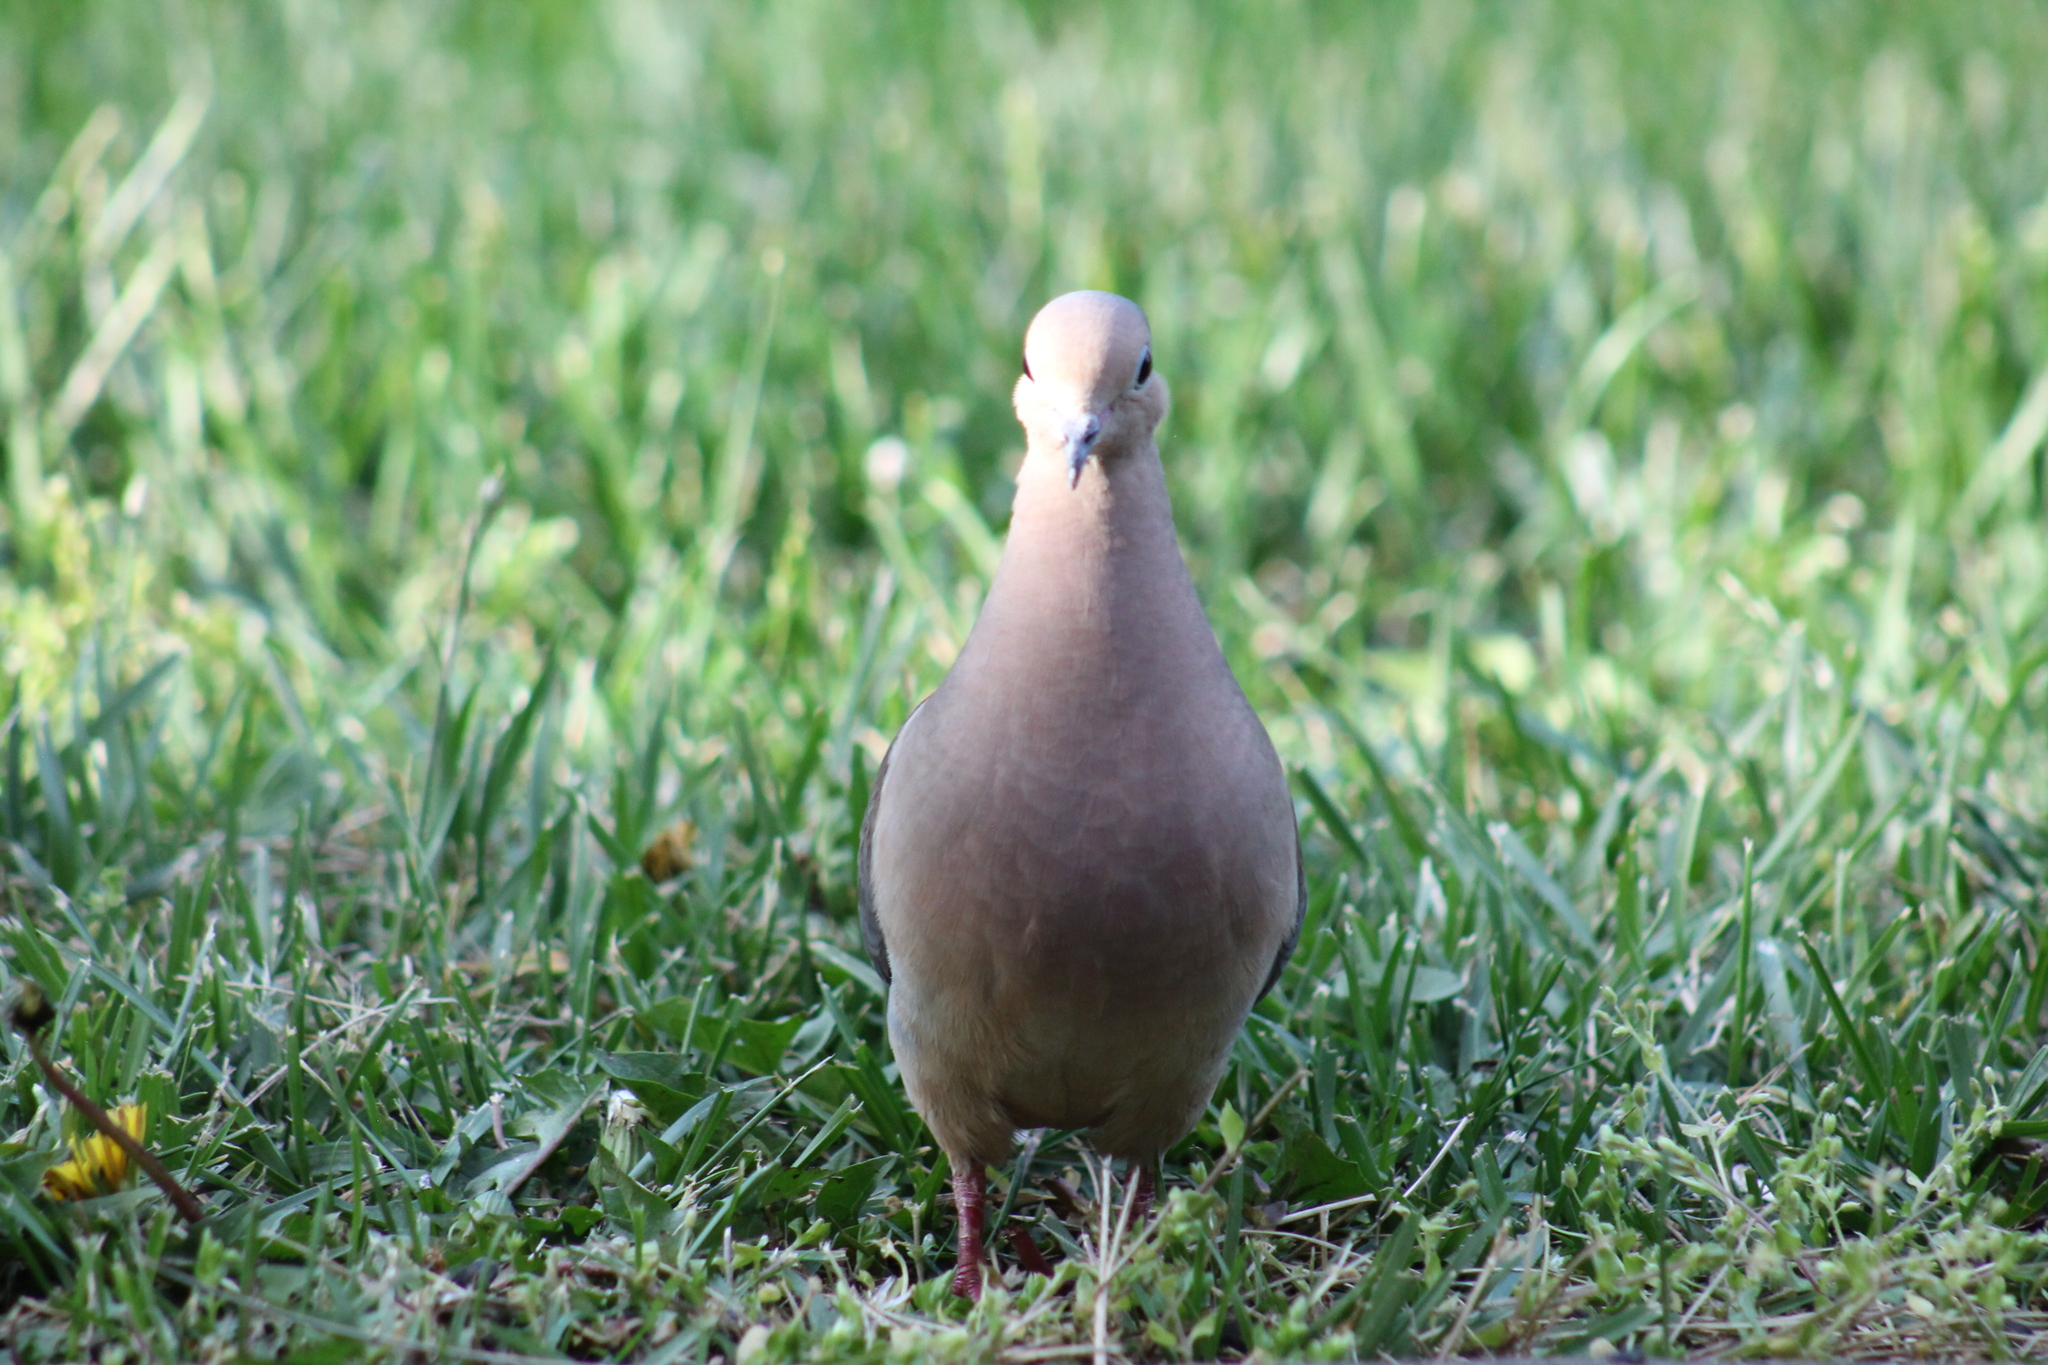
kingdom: Animalia
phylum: Chordata
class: Aves
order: Columbiformes
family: Columbidae
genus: Zenaida
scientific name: Zenaida macroura
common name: Mourning dove
